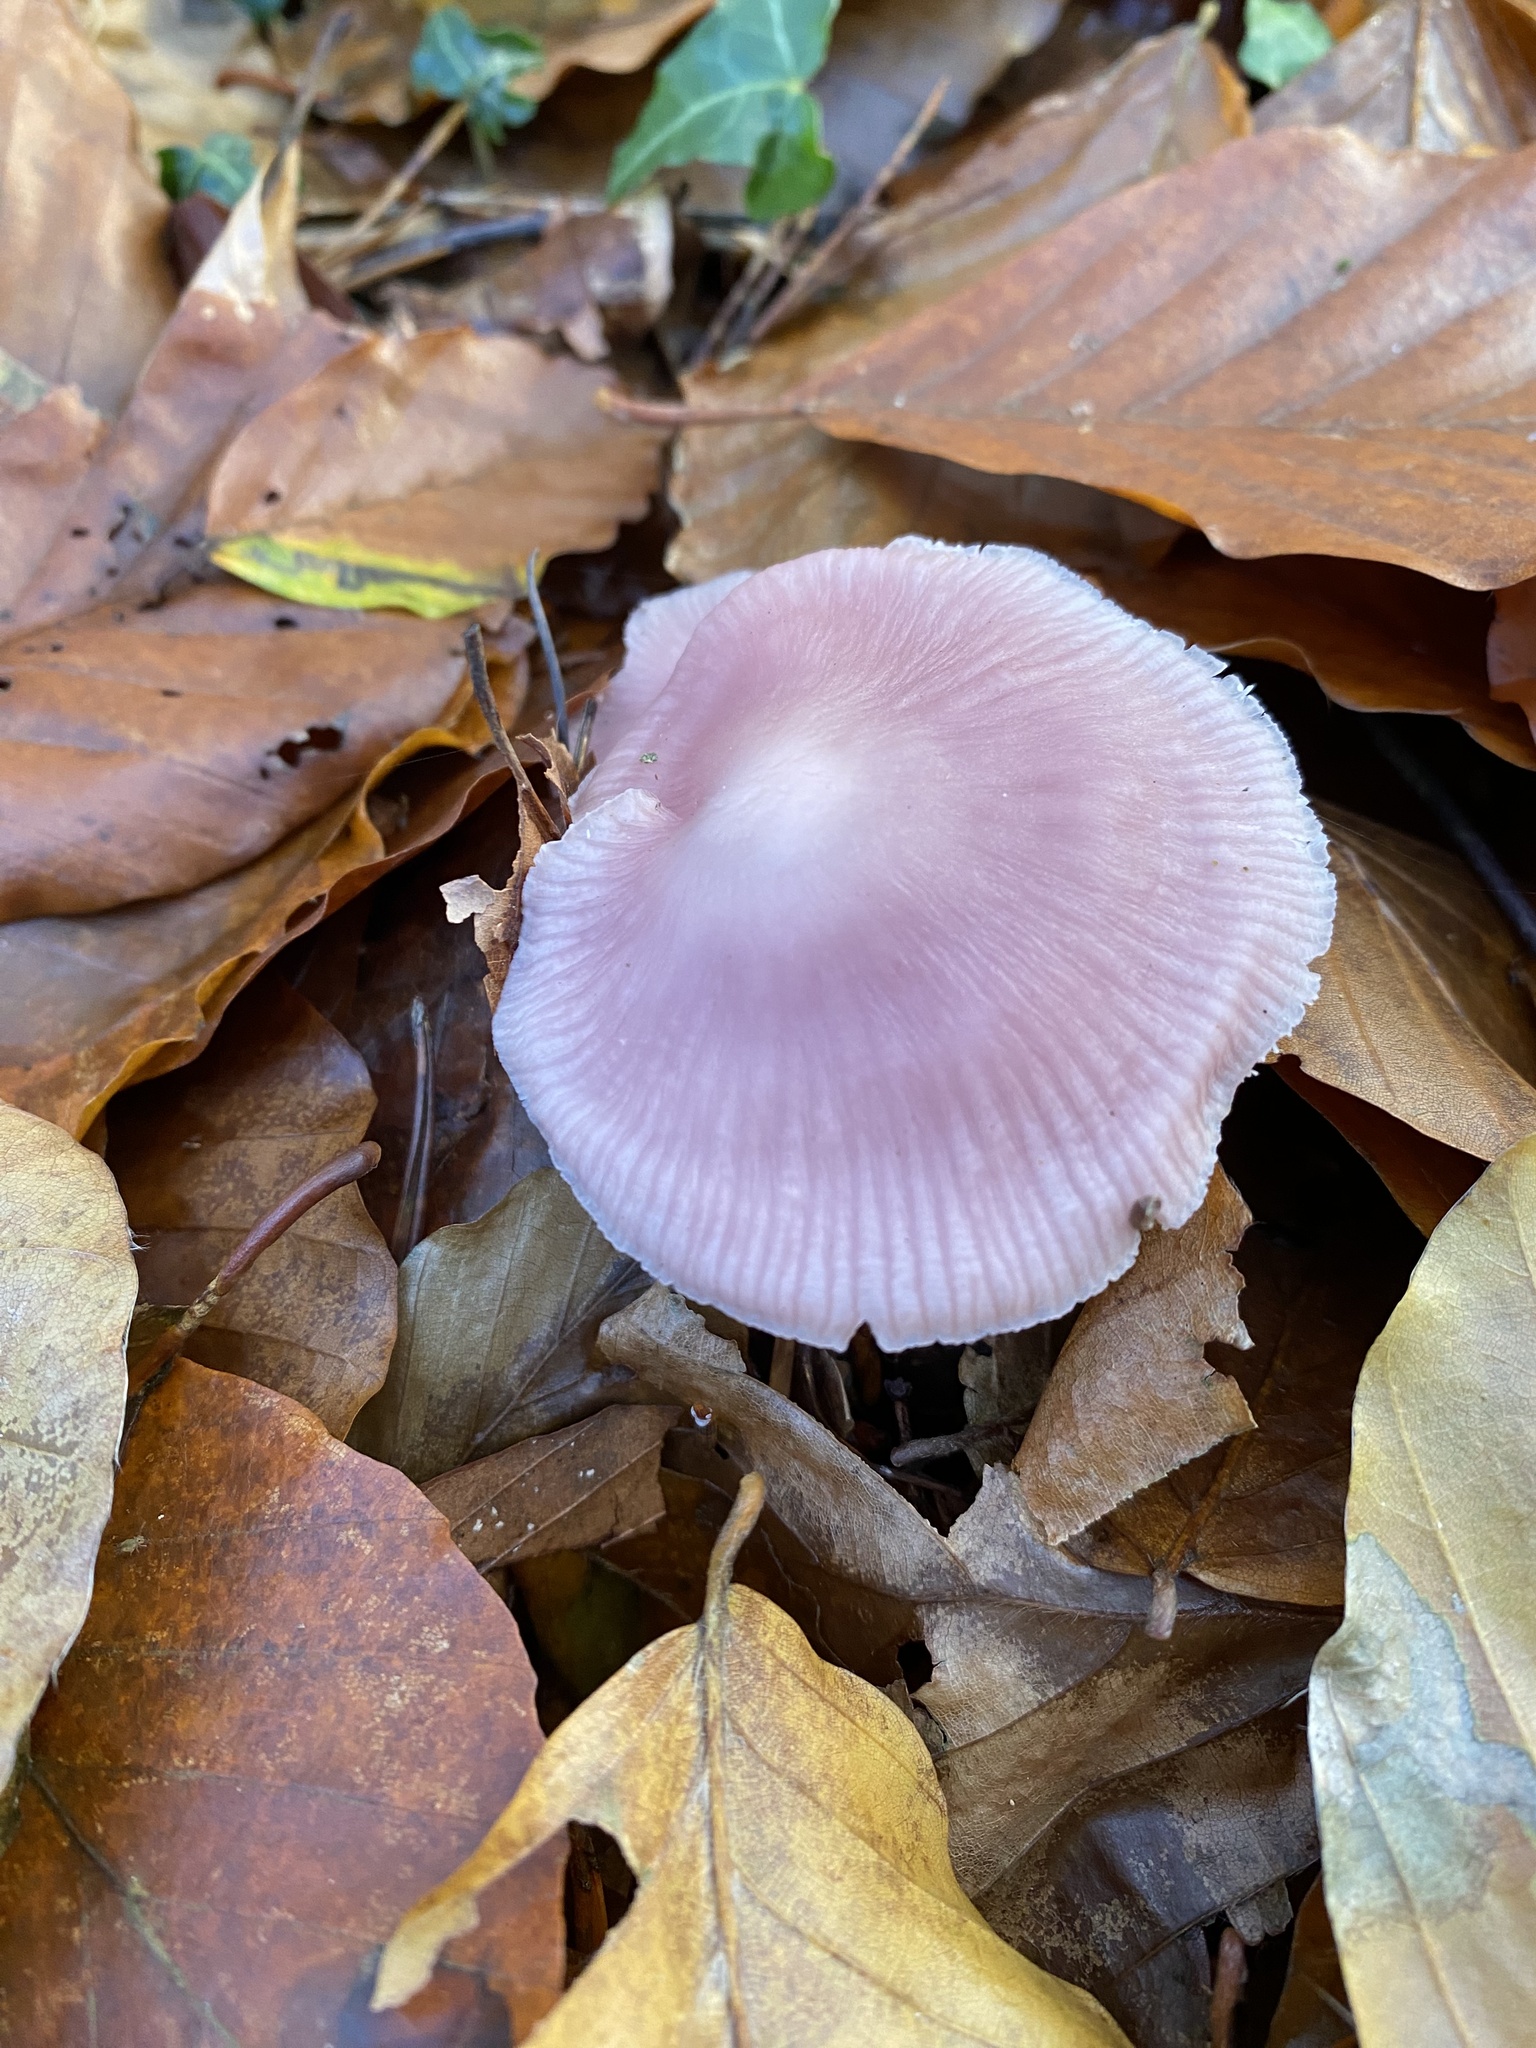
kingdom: Fungi
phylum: Basidiomycota
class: Agaricomycetes
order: Agaricales
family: Mycenaceae
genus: Mycena
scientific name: Mycena rosea
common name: Rosy bonnet
